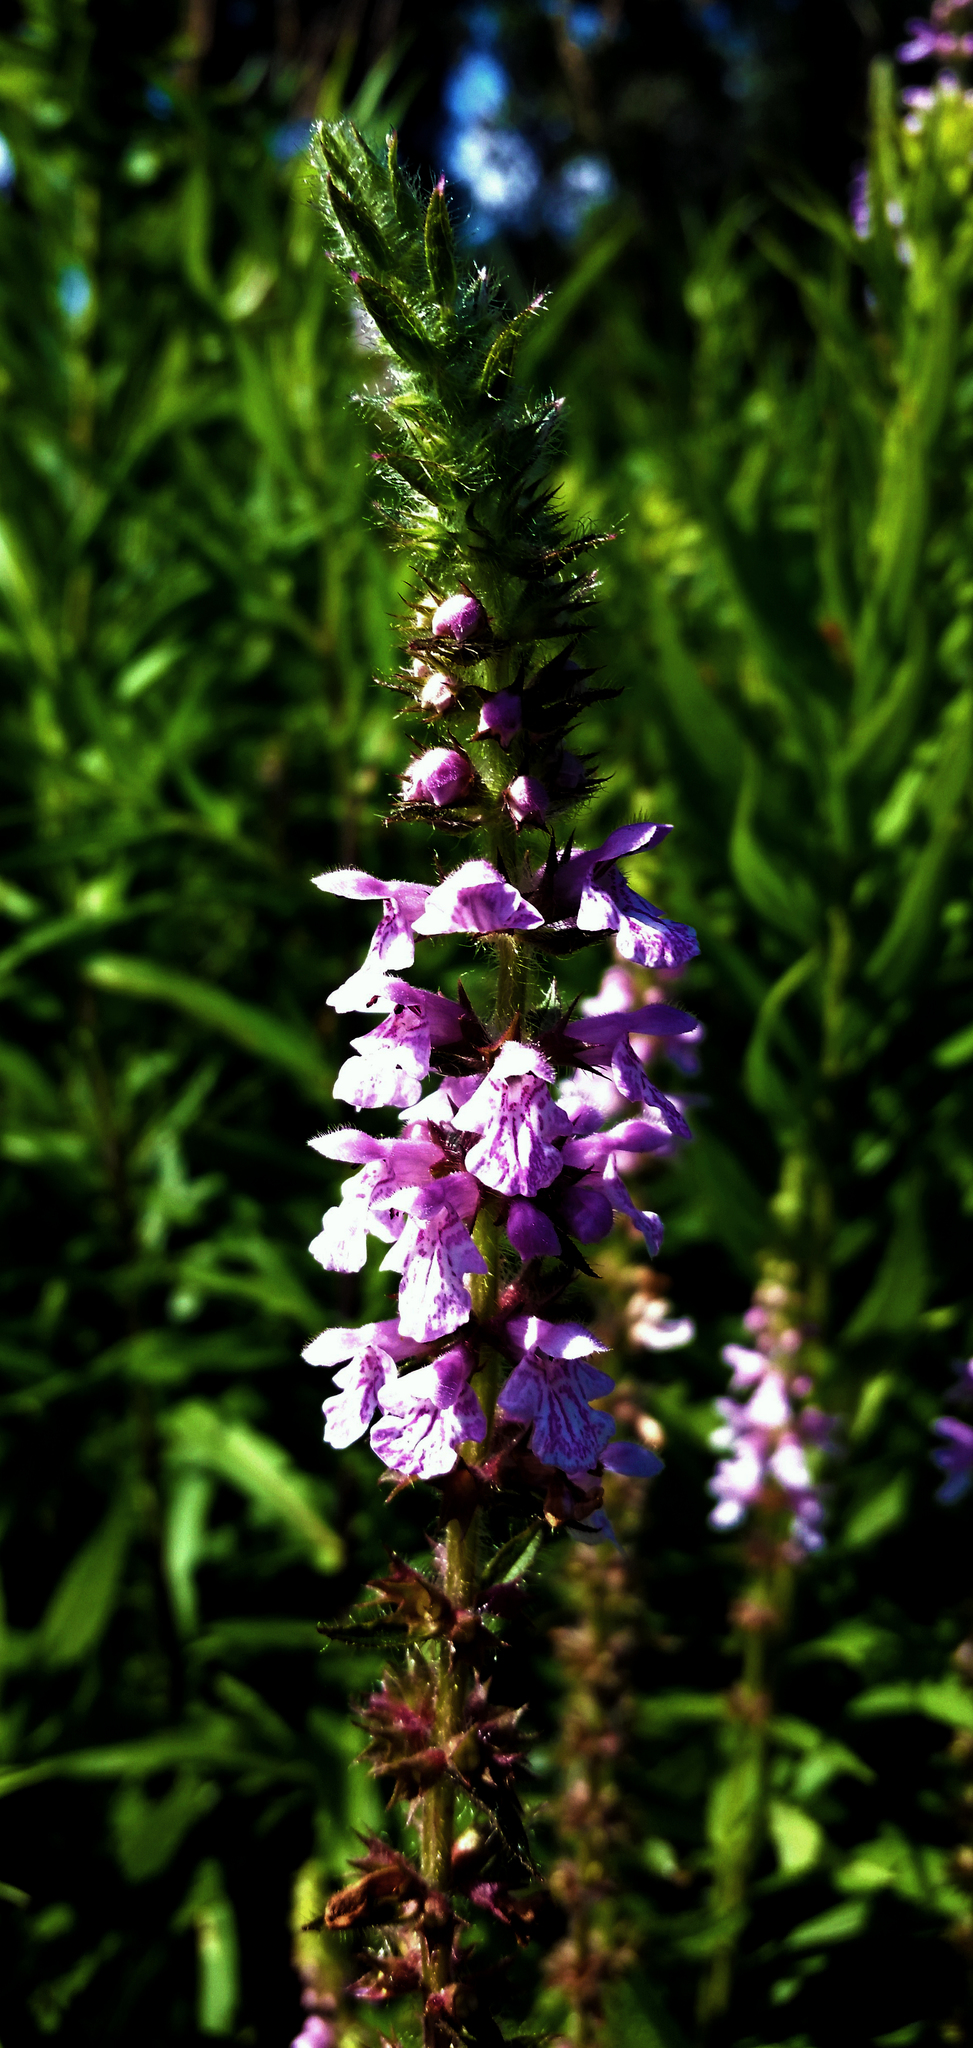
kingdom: Plantae
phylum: Tracheophyta
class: Magnoliopsida
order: Lamiales
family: Lamiaceae
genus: Stachys
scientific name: Stachys palustris
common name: Marsh woundwort
